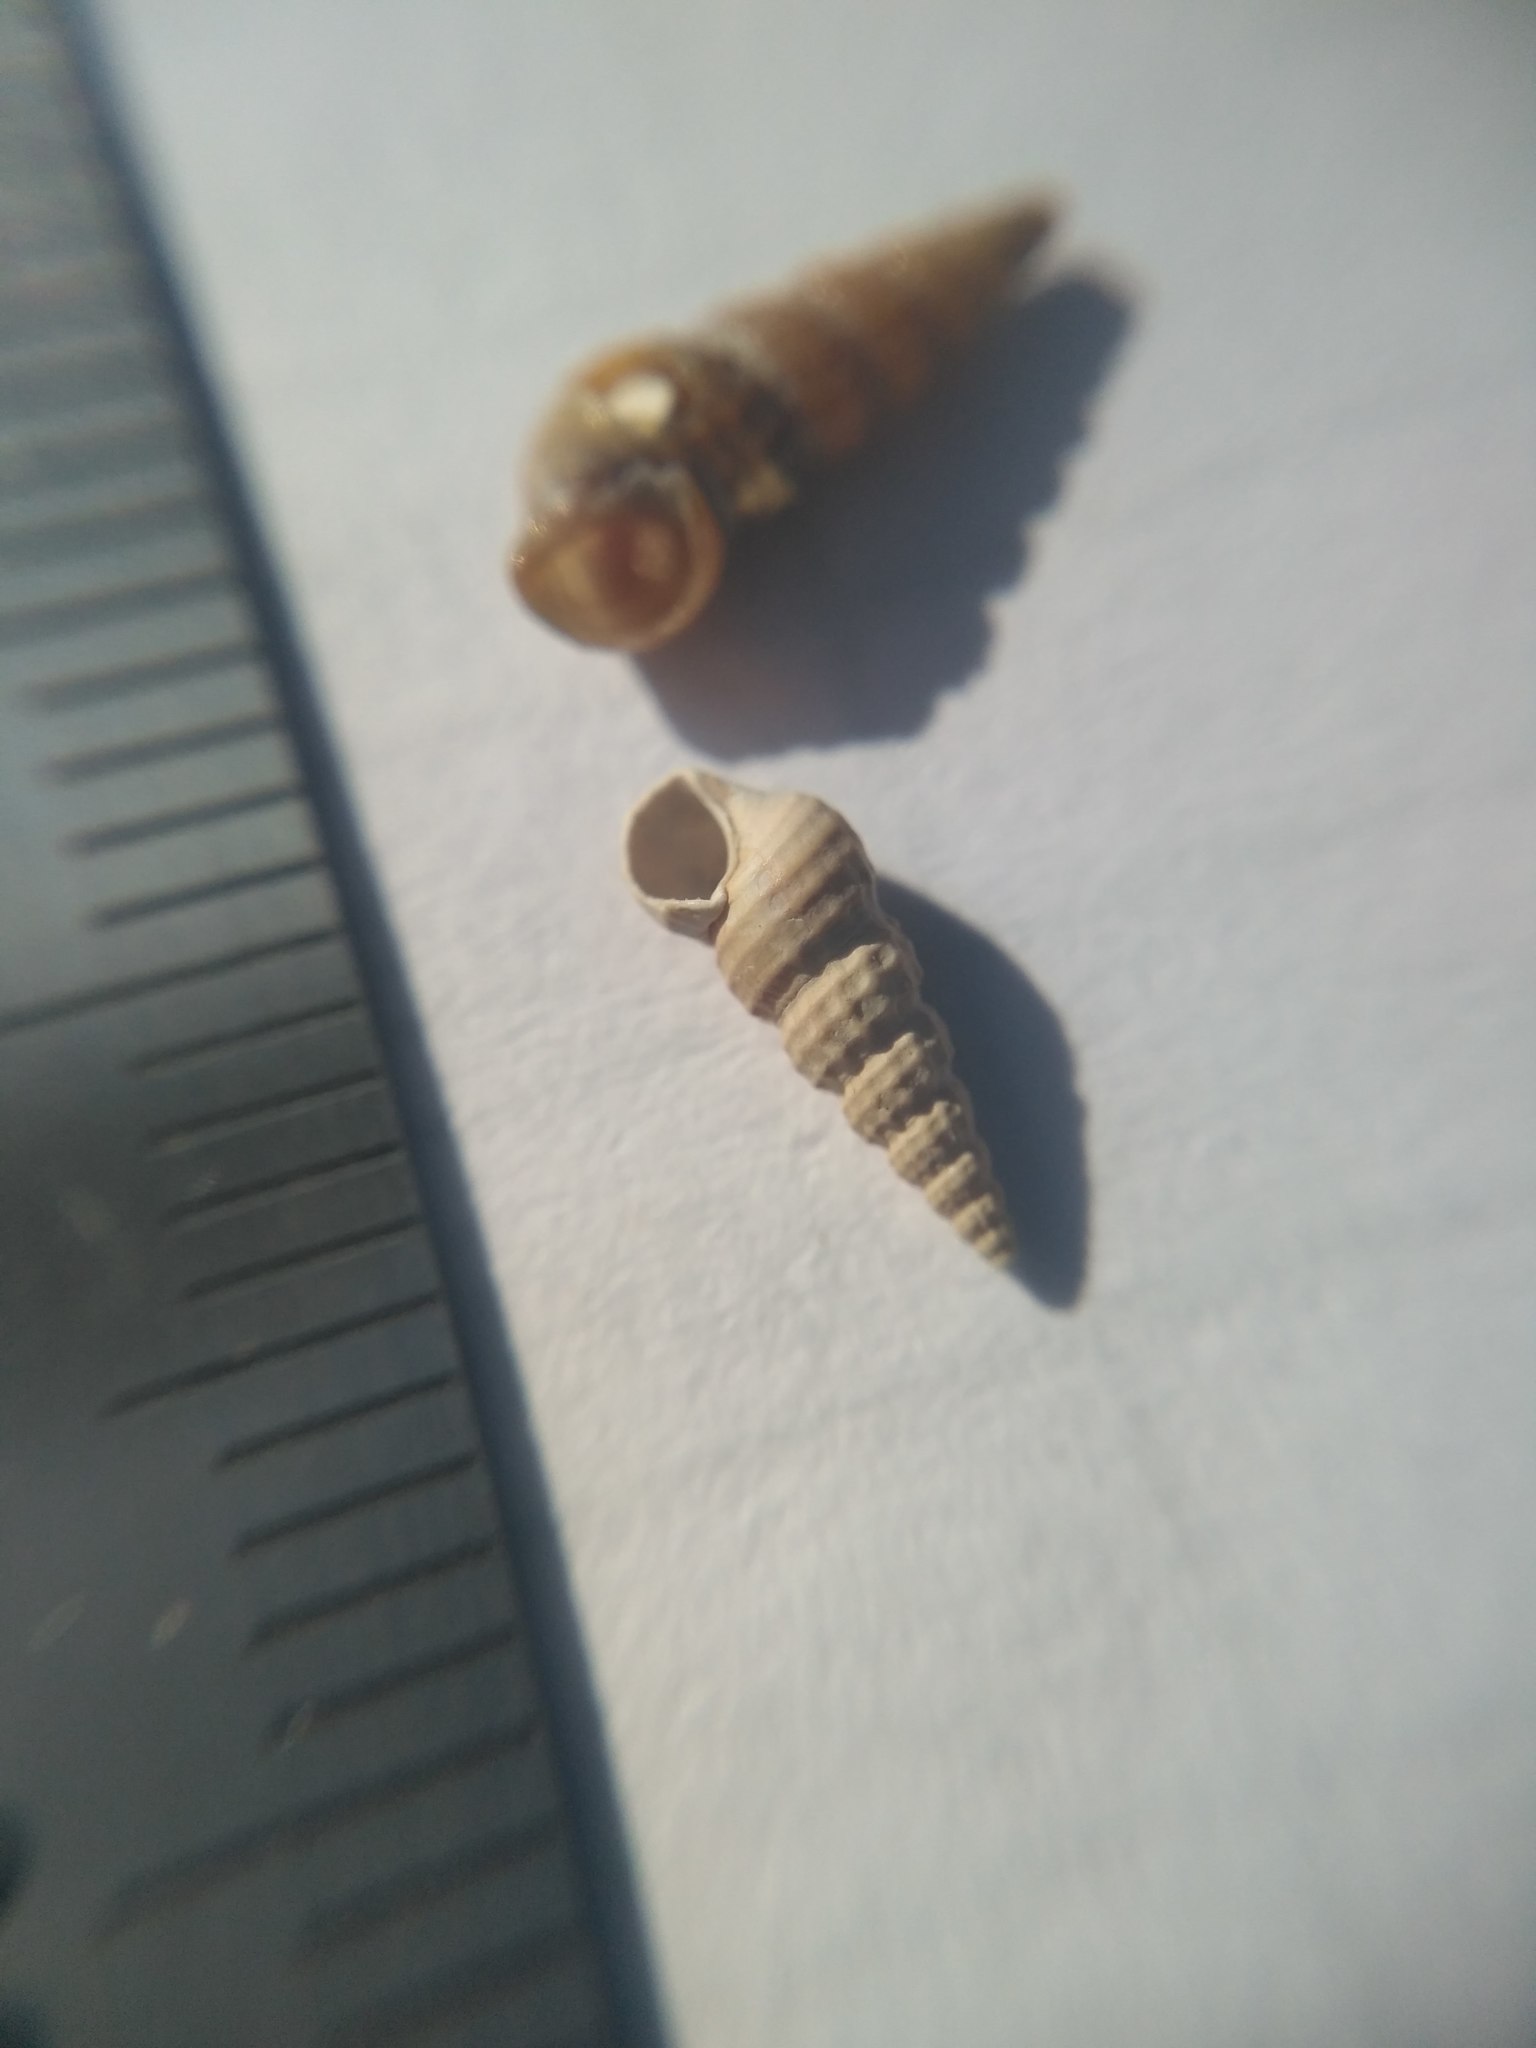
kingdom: Animalia
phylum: Mollusca
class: Gastropoda
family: Cerithiidae
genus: Bittium
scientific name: Bittium reticulatum
